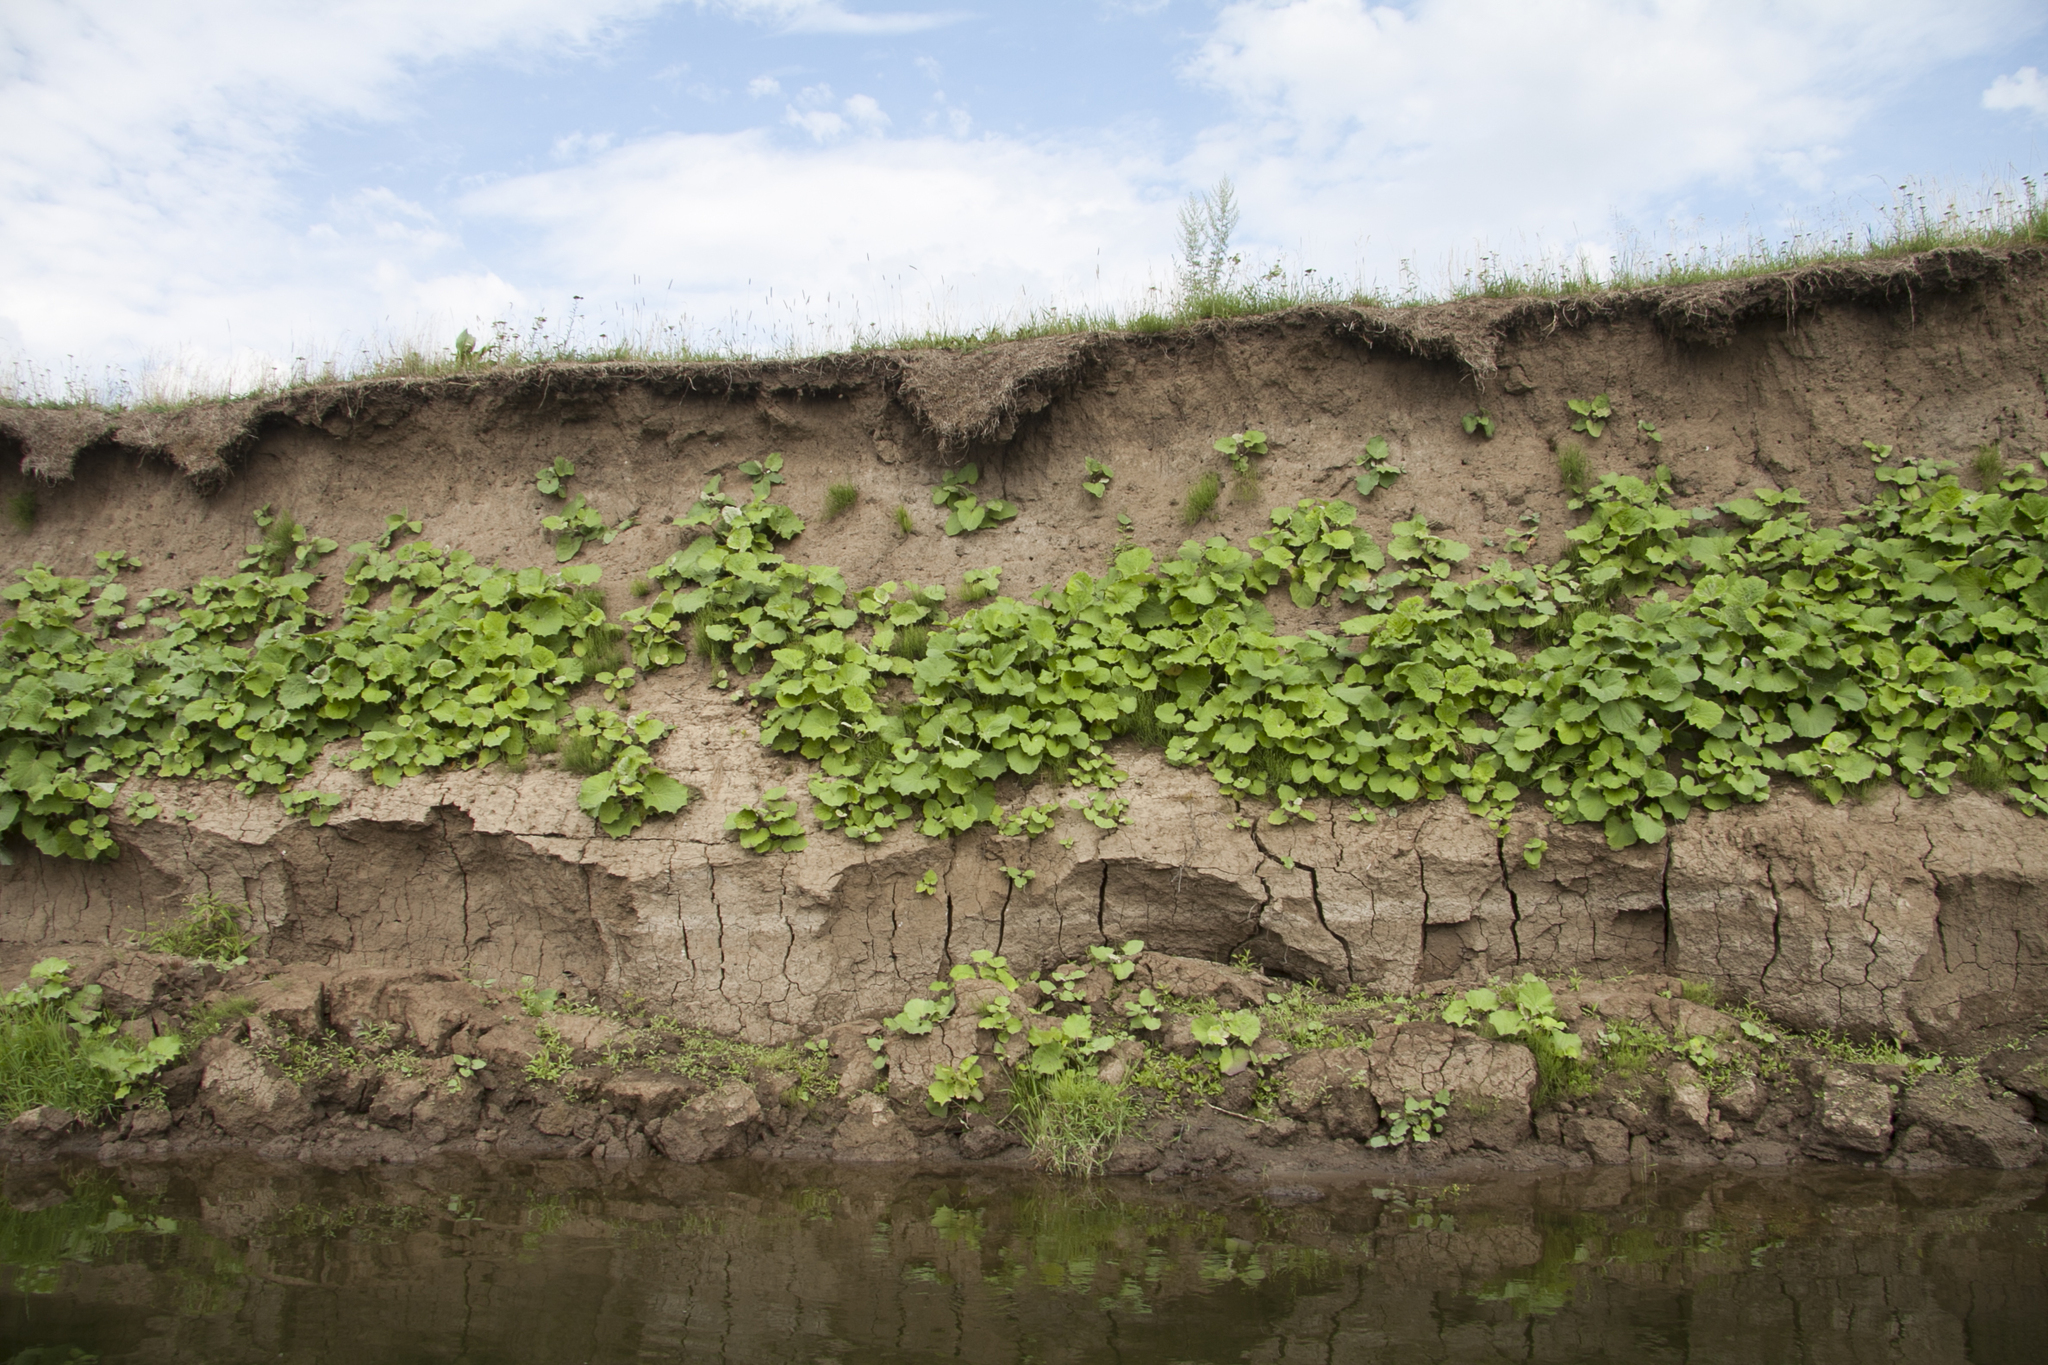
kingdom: Plantae
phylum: Tracheophyta
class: Magnoliopsida
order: Asterales
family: Asteraceae
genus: Tussilago
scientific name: Tussilago farfara
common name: Coltsfoot
